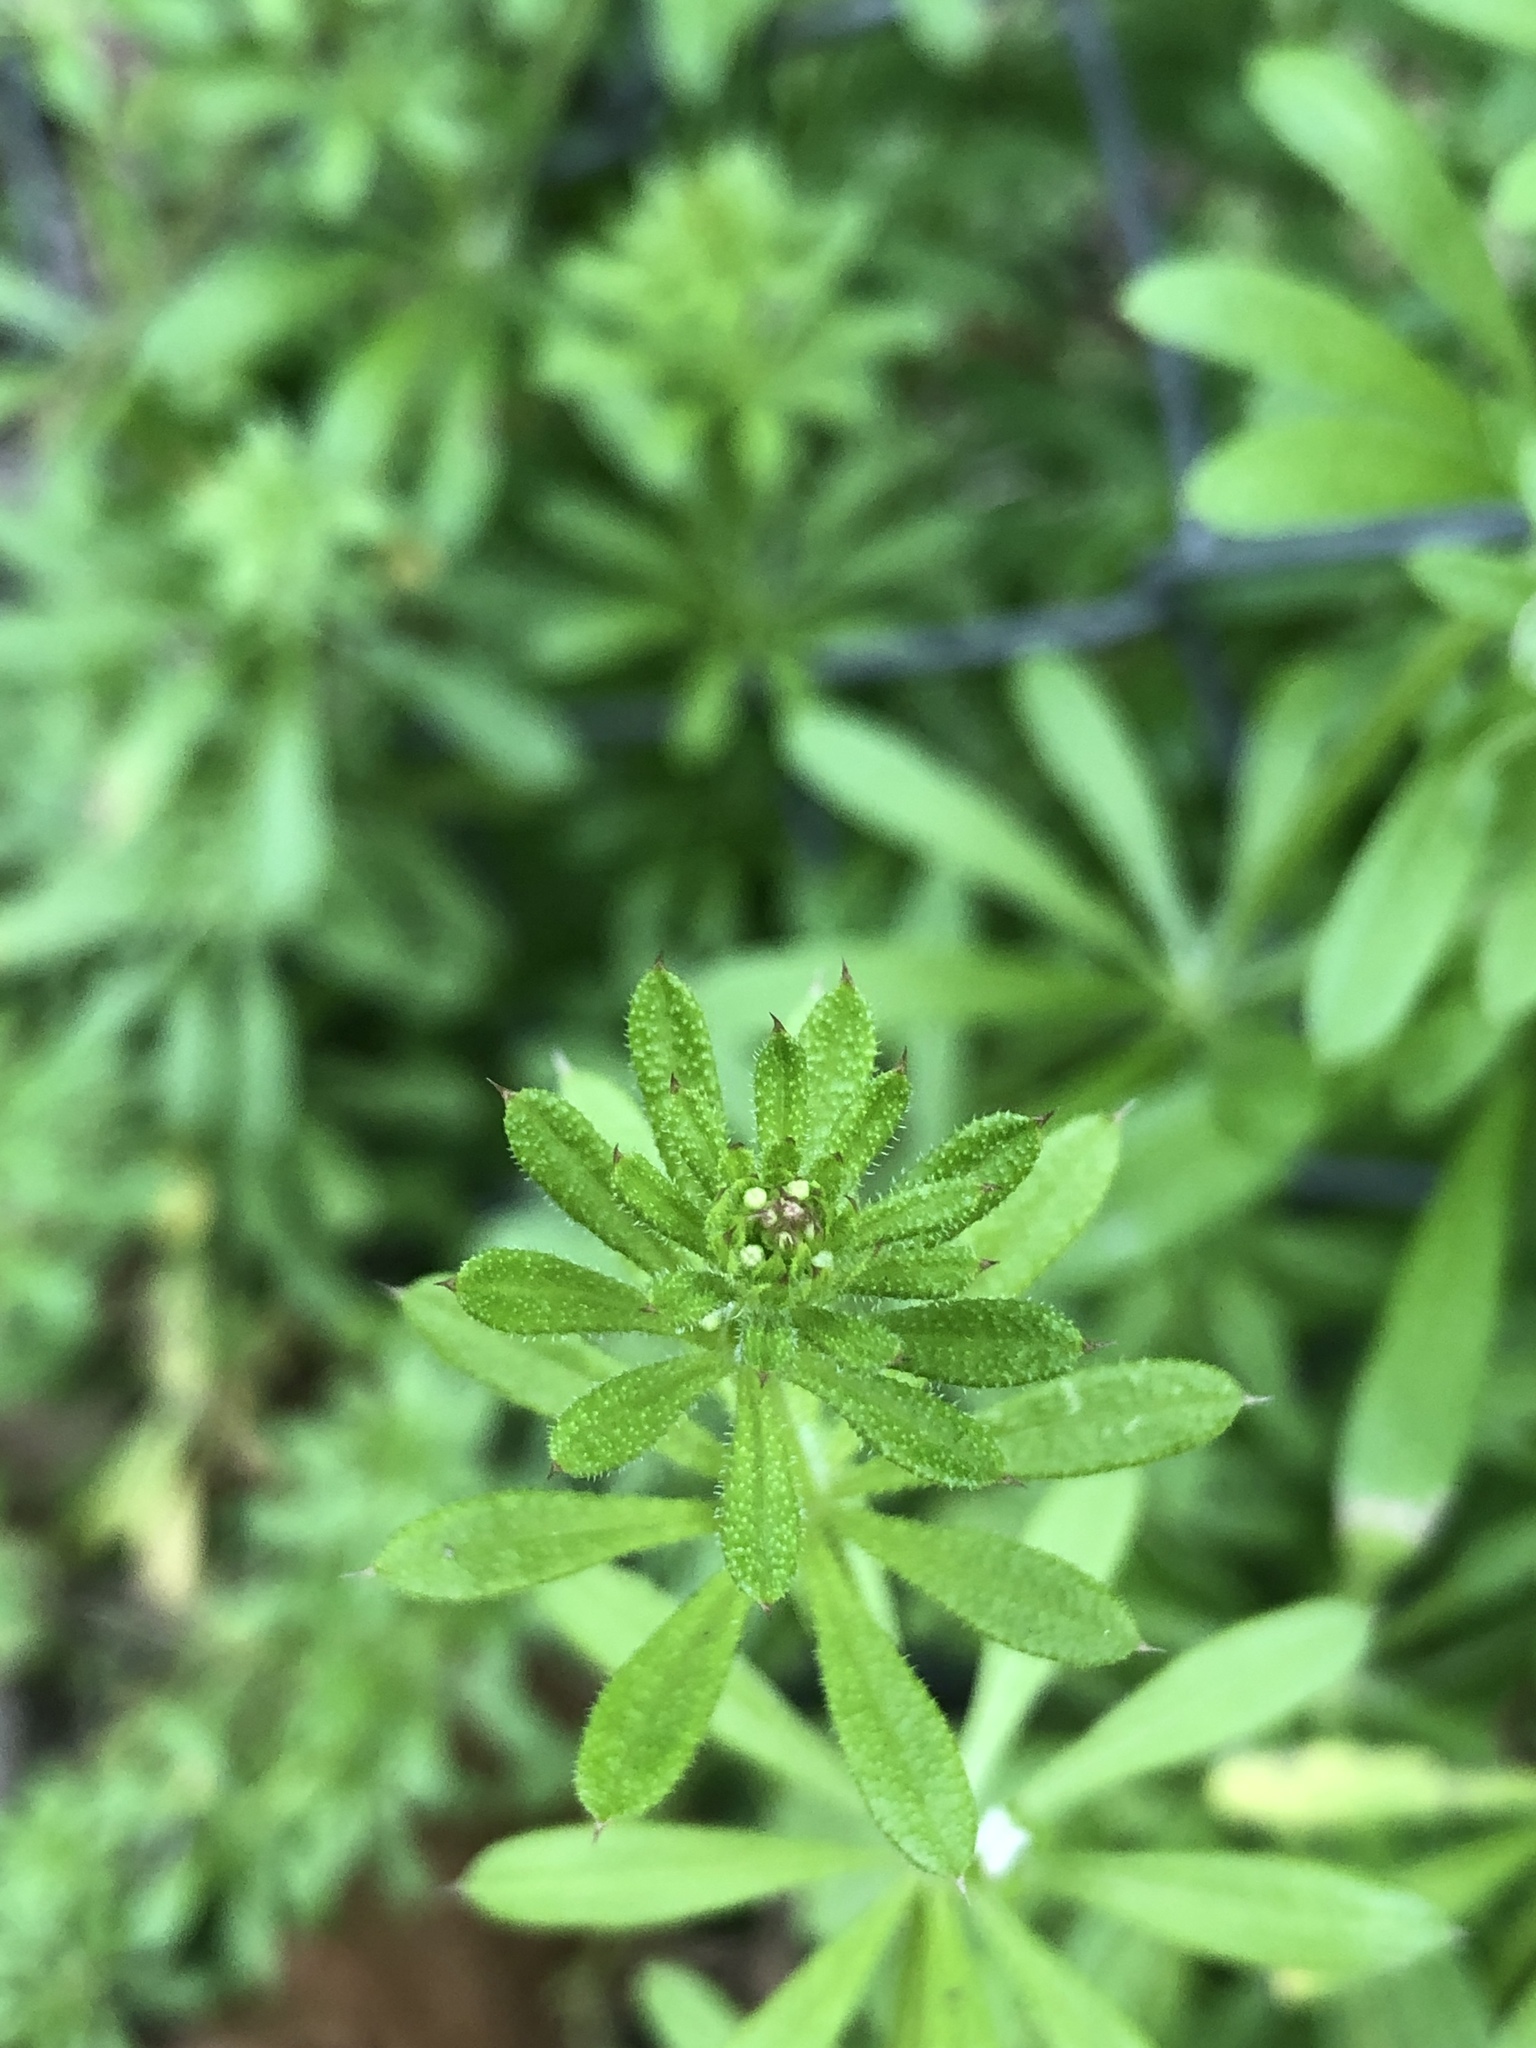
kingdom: Plantae
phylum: Tracheophyta
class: Magnoliopsida
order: Gentianales
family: Rubiaceae
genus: Galium
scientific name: Galium aparine
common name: Cleavers
